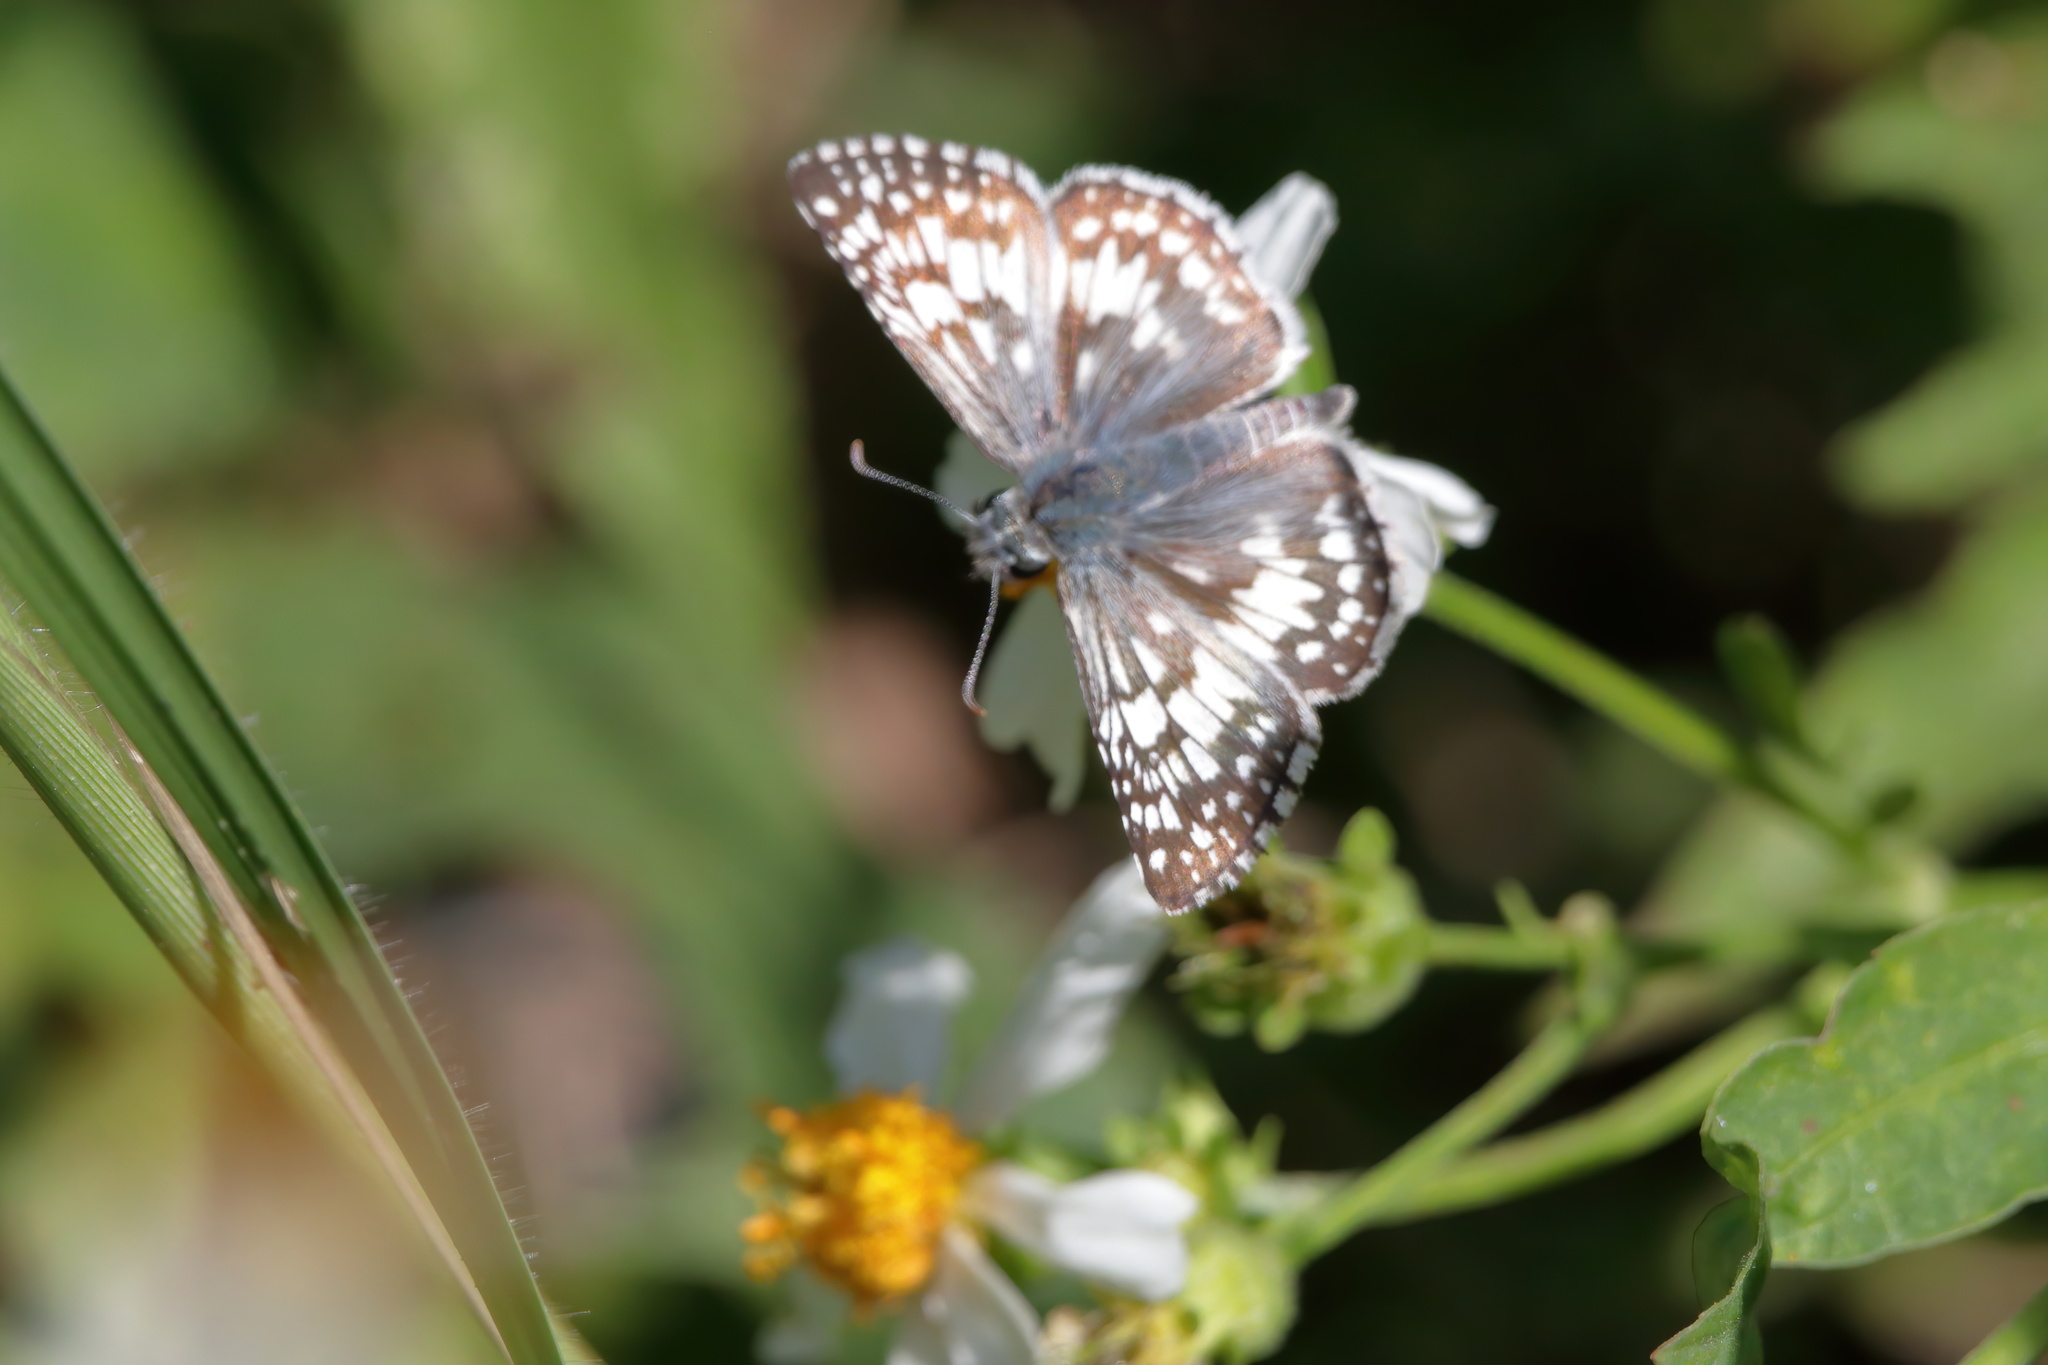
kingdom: Animalia
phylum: Arthropoda
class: Insecta
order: Lepidoptera
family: Hesperiidae
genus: Burnsius
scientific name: Burnsius
